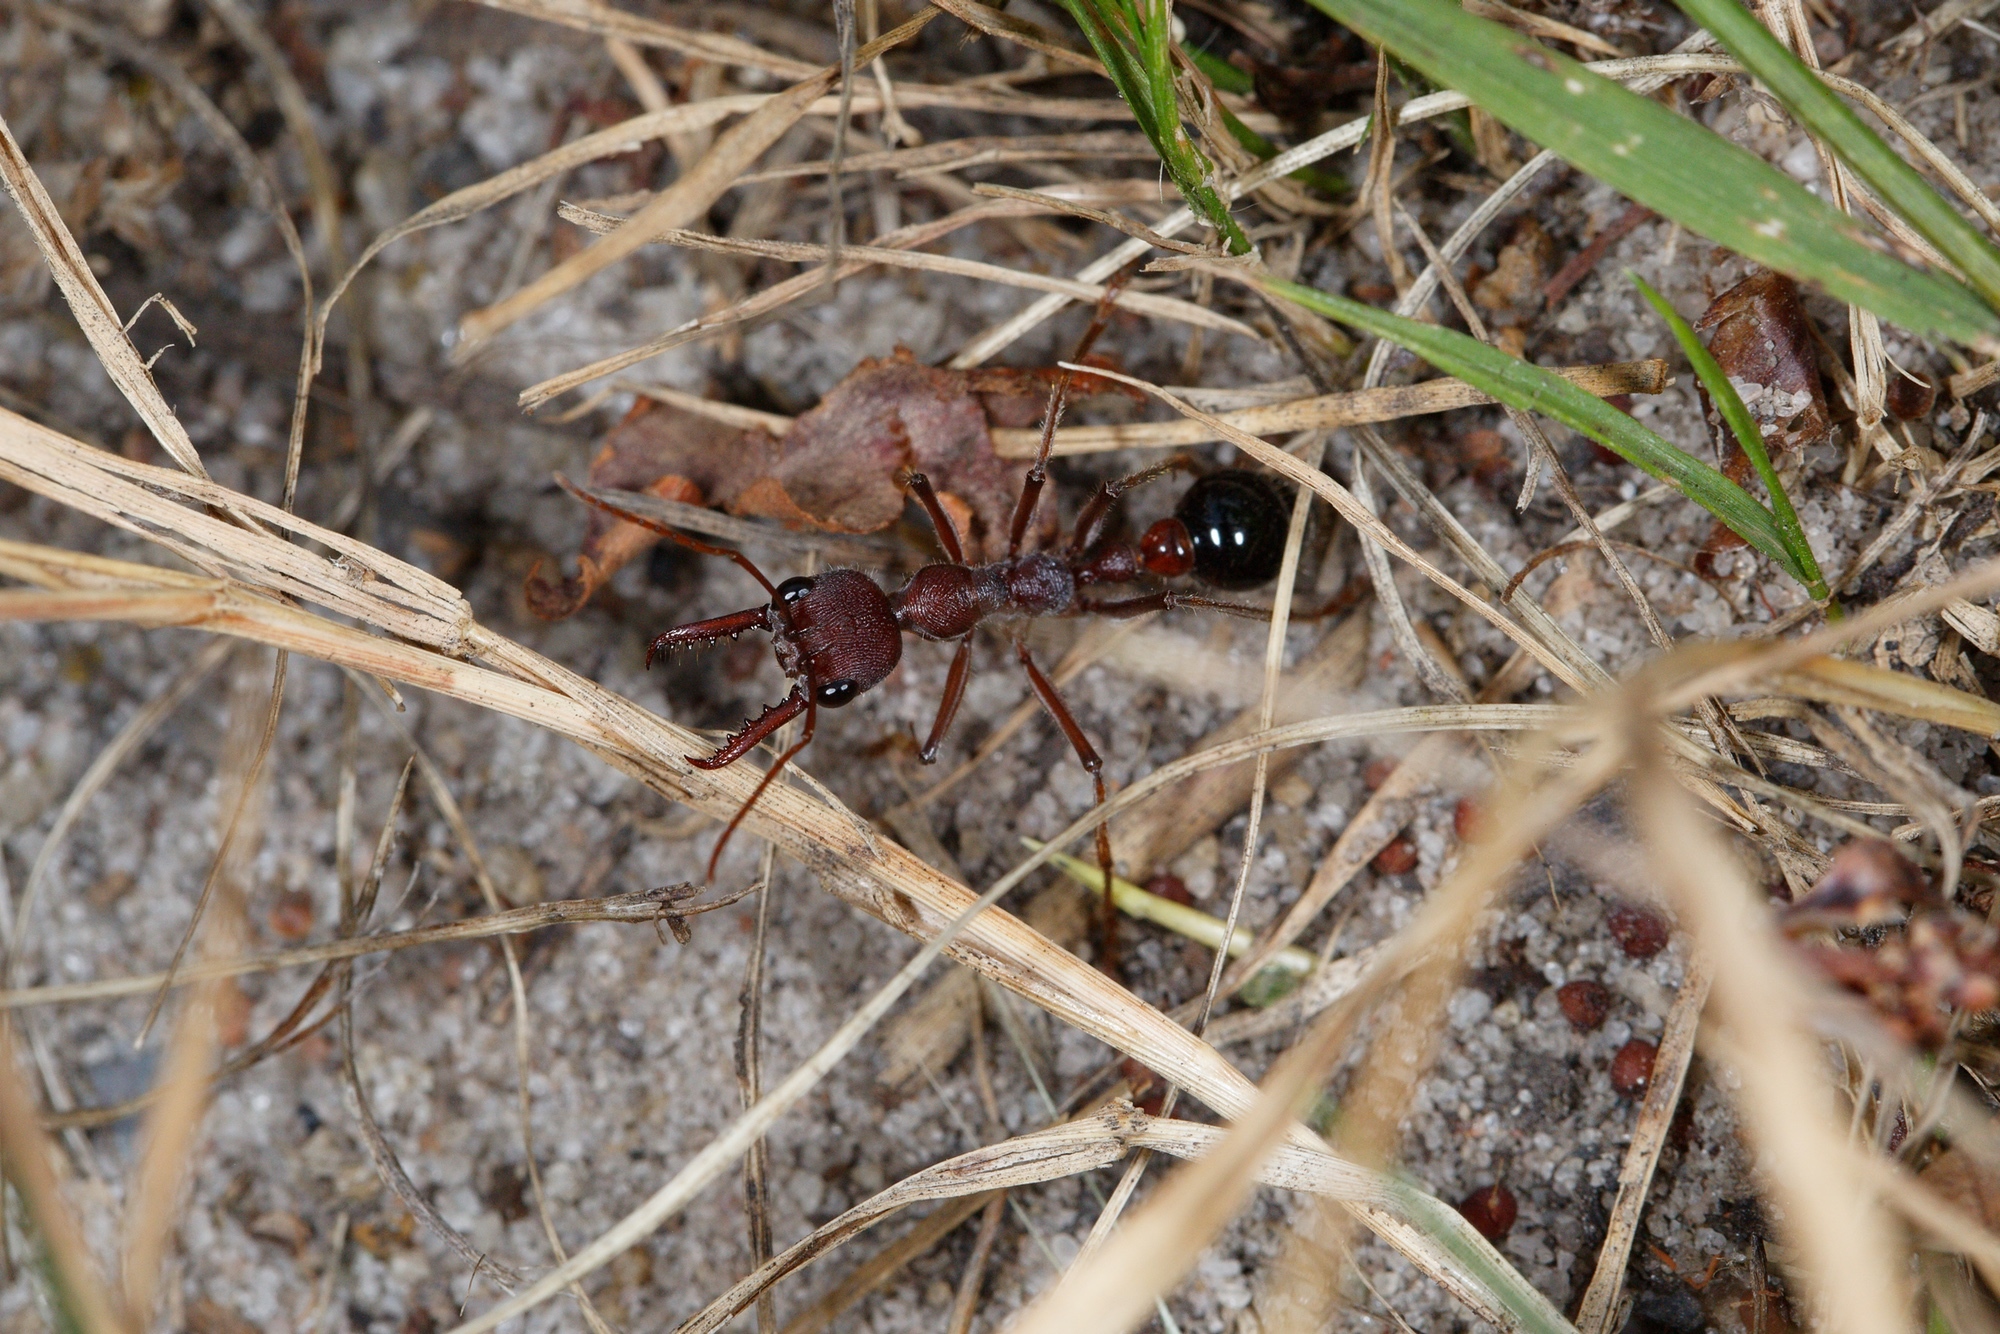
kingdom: Animalia
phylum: Arthropoda
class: Insecta
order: Hymenoptera
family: Formicidae
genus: Myrmecia
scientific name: Myrmecia simillima
